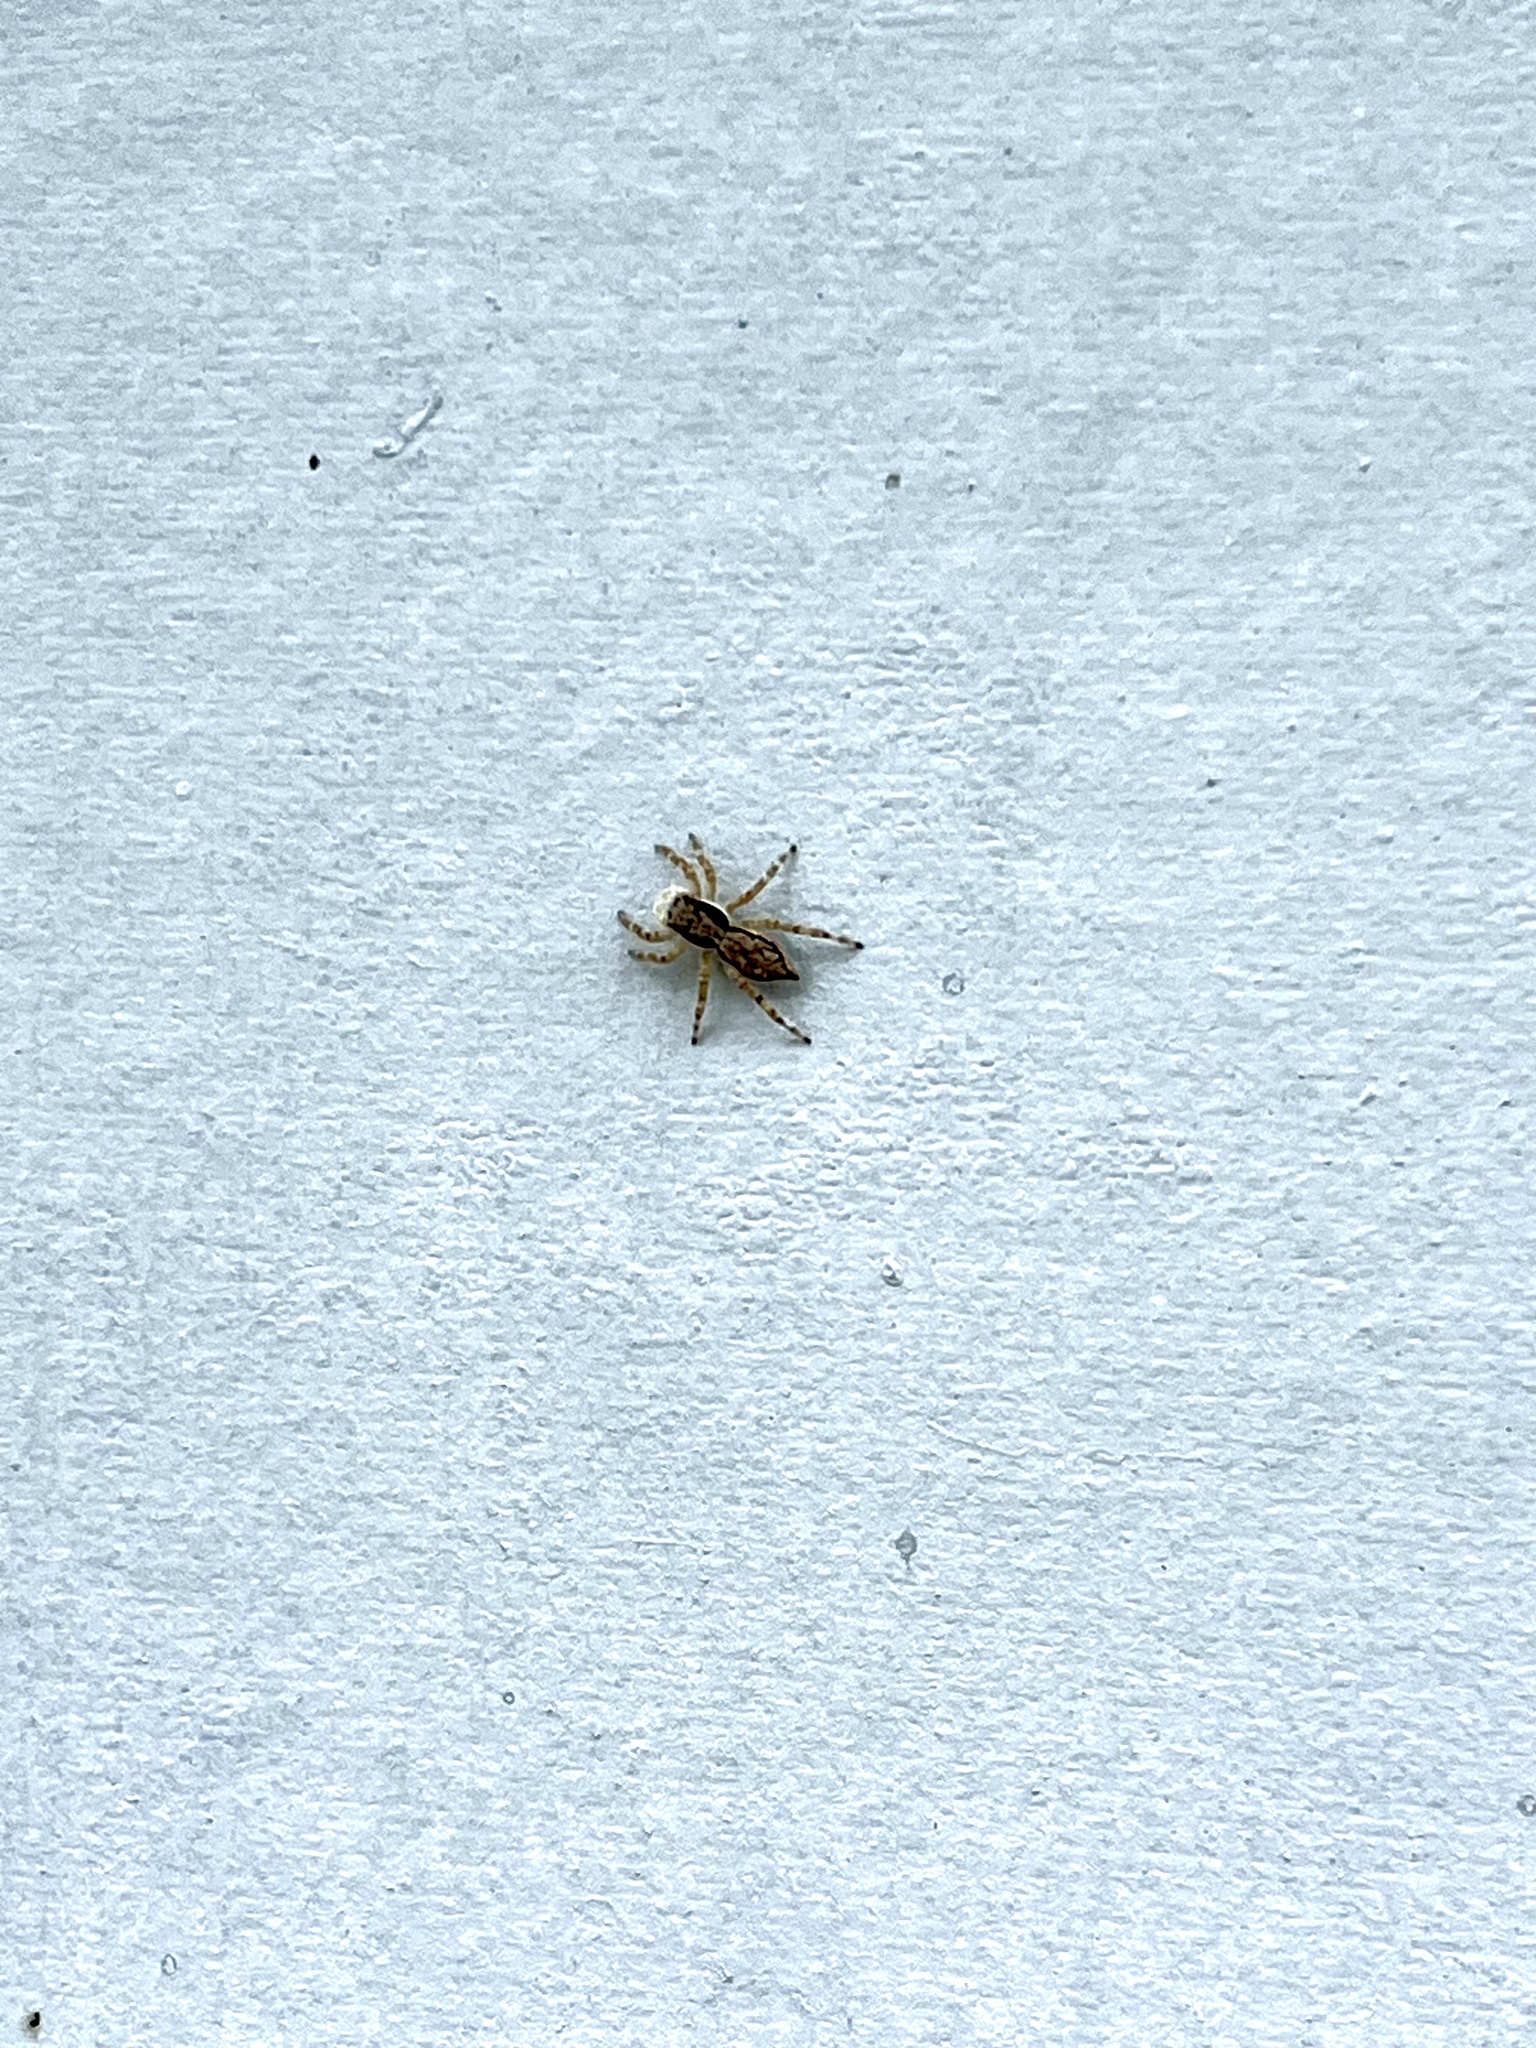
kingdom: Animalia
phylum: Arthropoda
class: Arachnida
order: Araneae
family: Salticidae
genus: Menemerus
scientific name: Menemerus bivittatus
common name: Gray wall jumper
